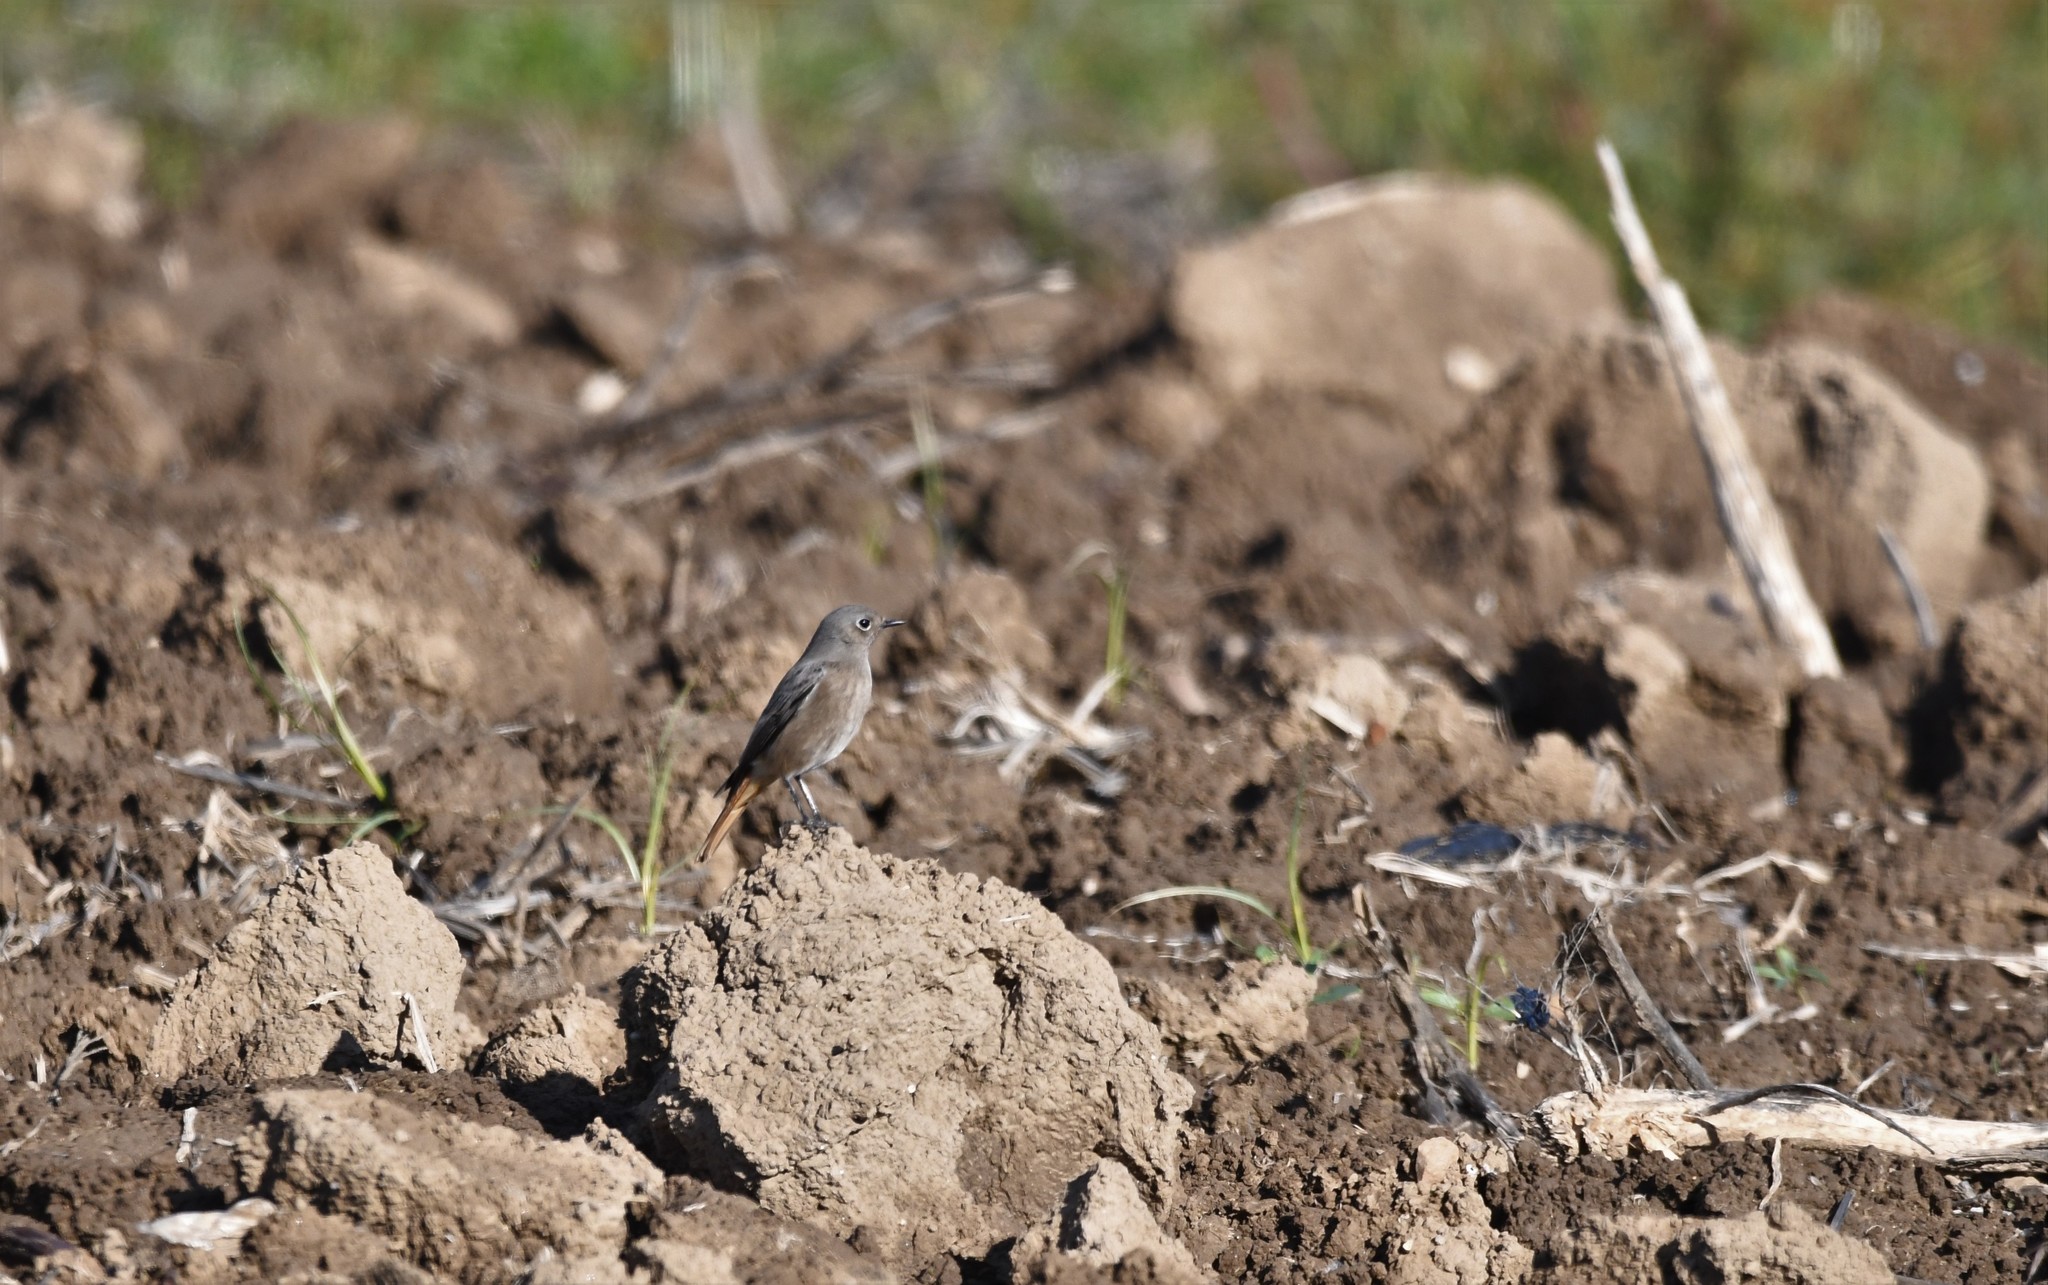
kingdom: Animalia
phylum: Chordata
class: Aves
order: Passeriformes
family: Muscicapidae
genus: Phoenicurus
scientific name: Phoenicurus ochruros
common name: Black redstart
